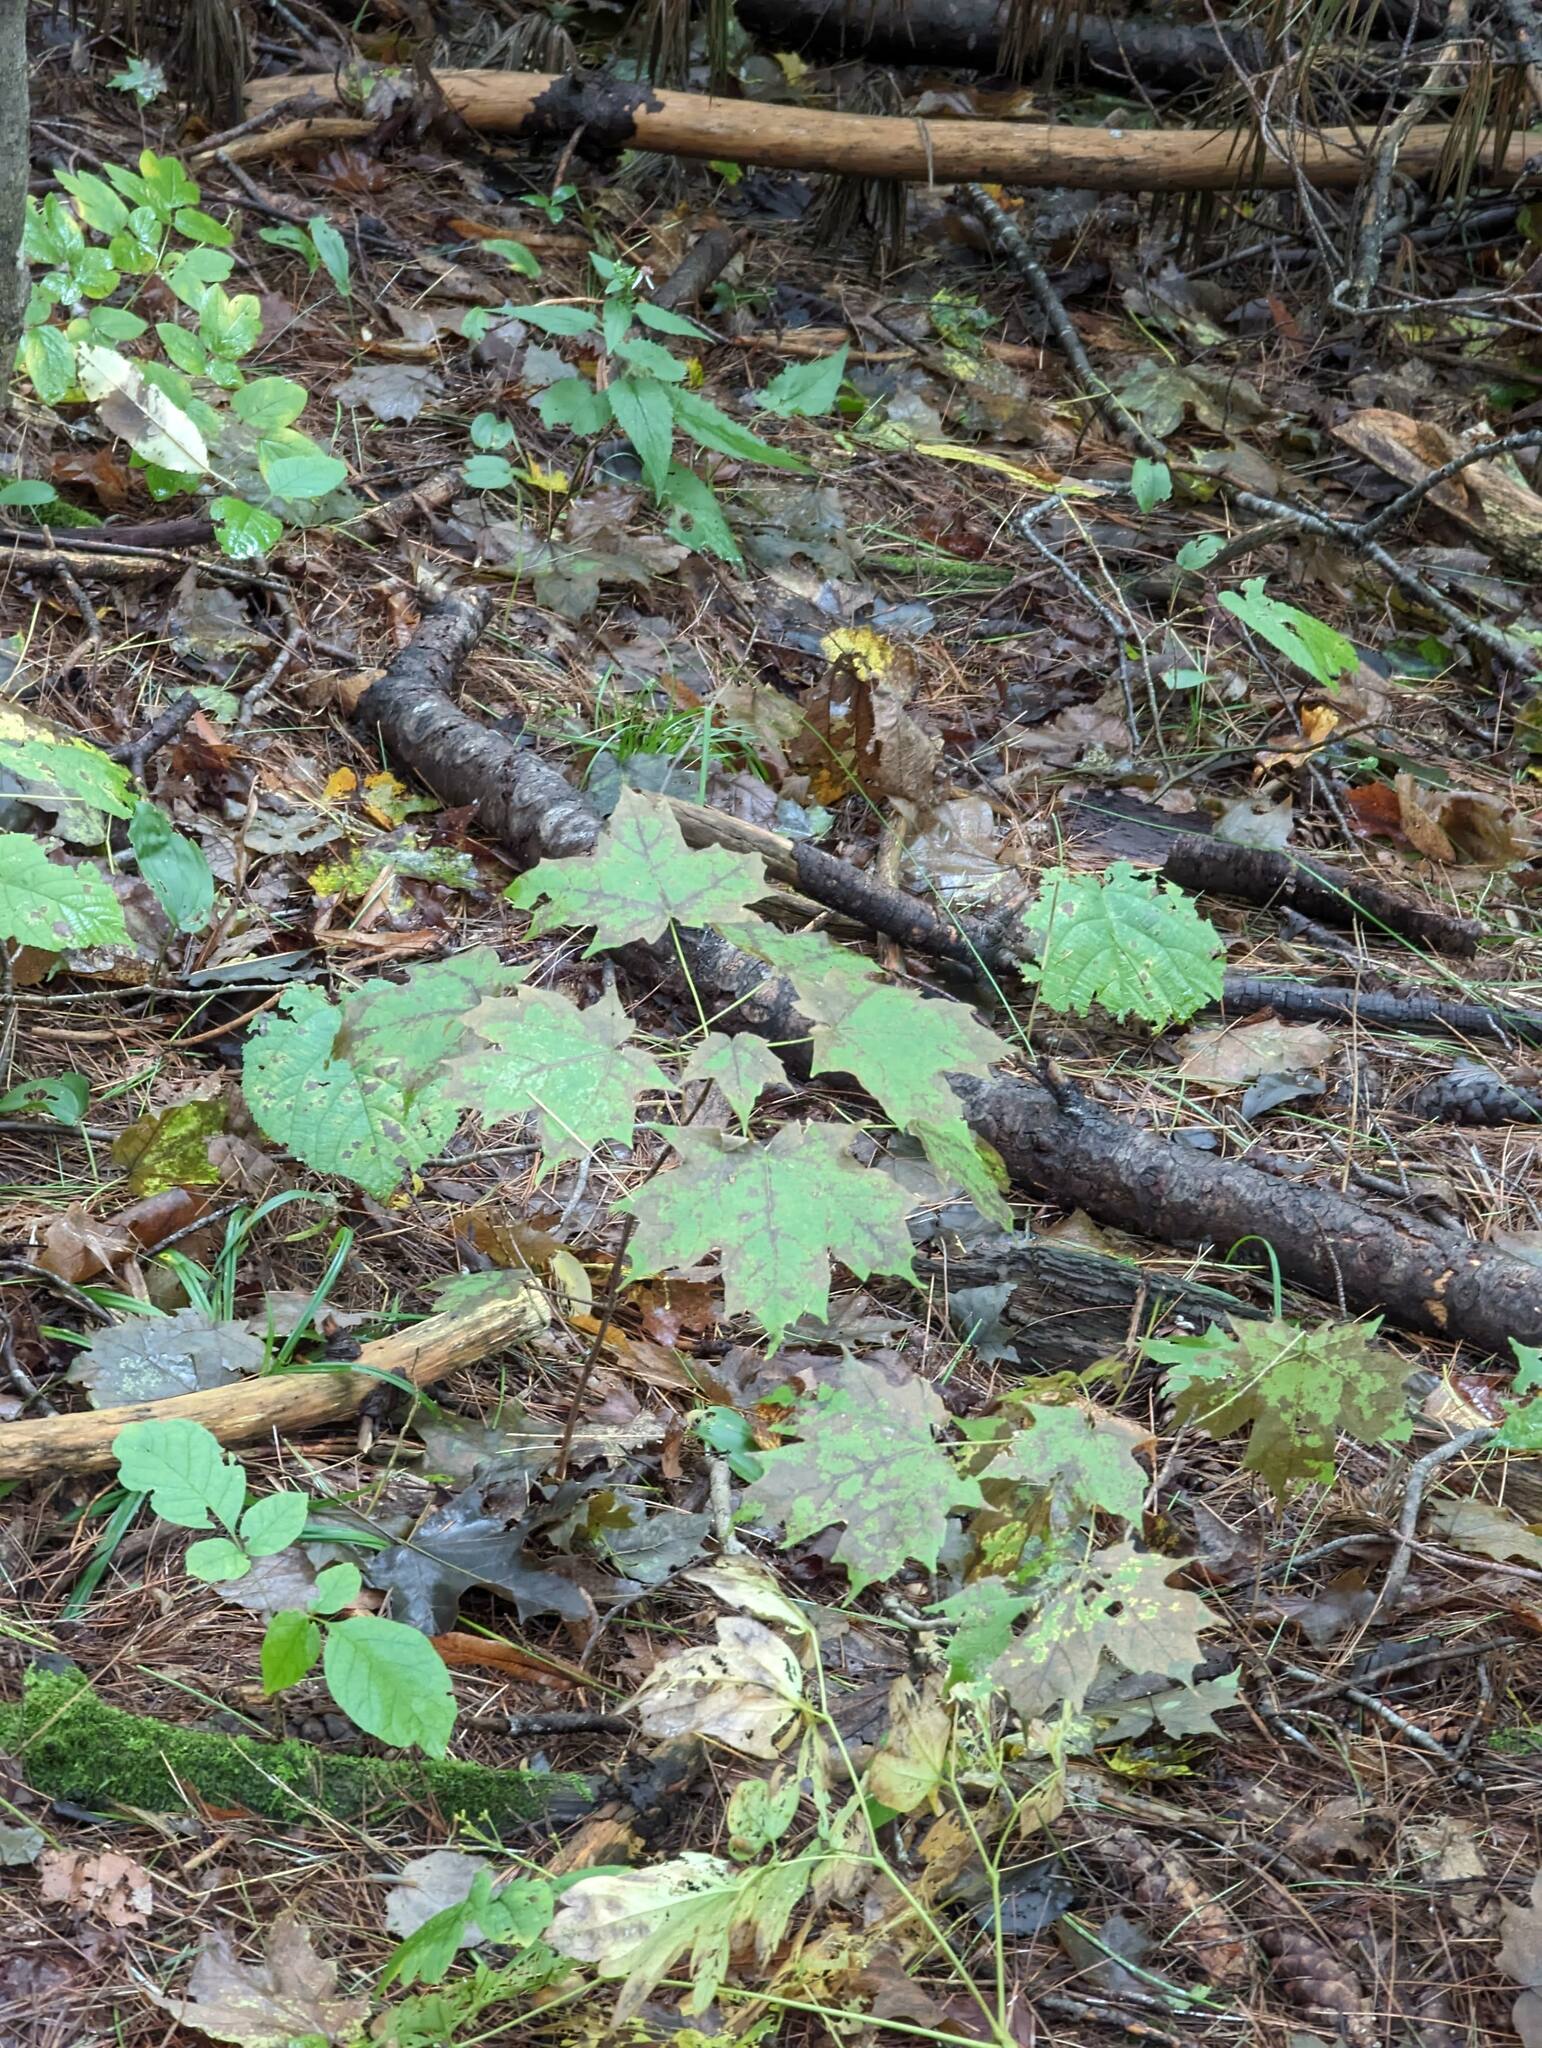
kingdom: Plantae
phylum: Tracheophyta
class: Magnoliopsida
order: Sapindales
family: Sapindaceae
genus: Acer
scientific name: Acer saccharum
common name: Sugar maple
